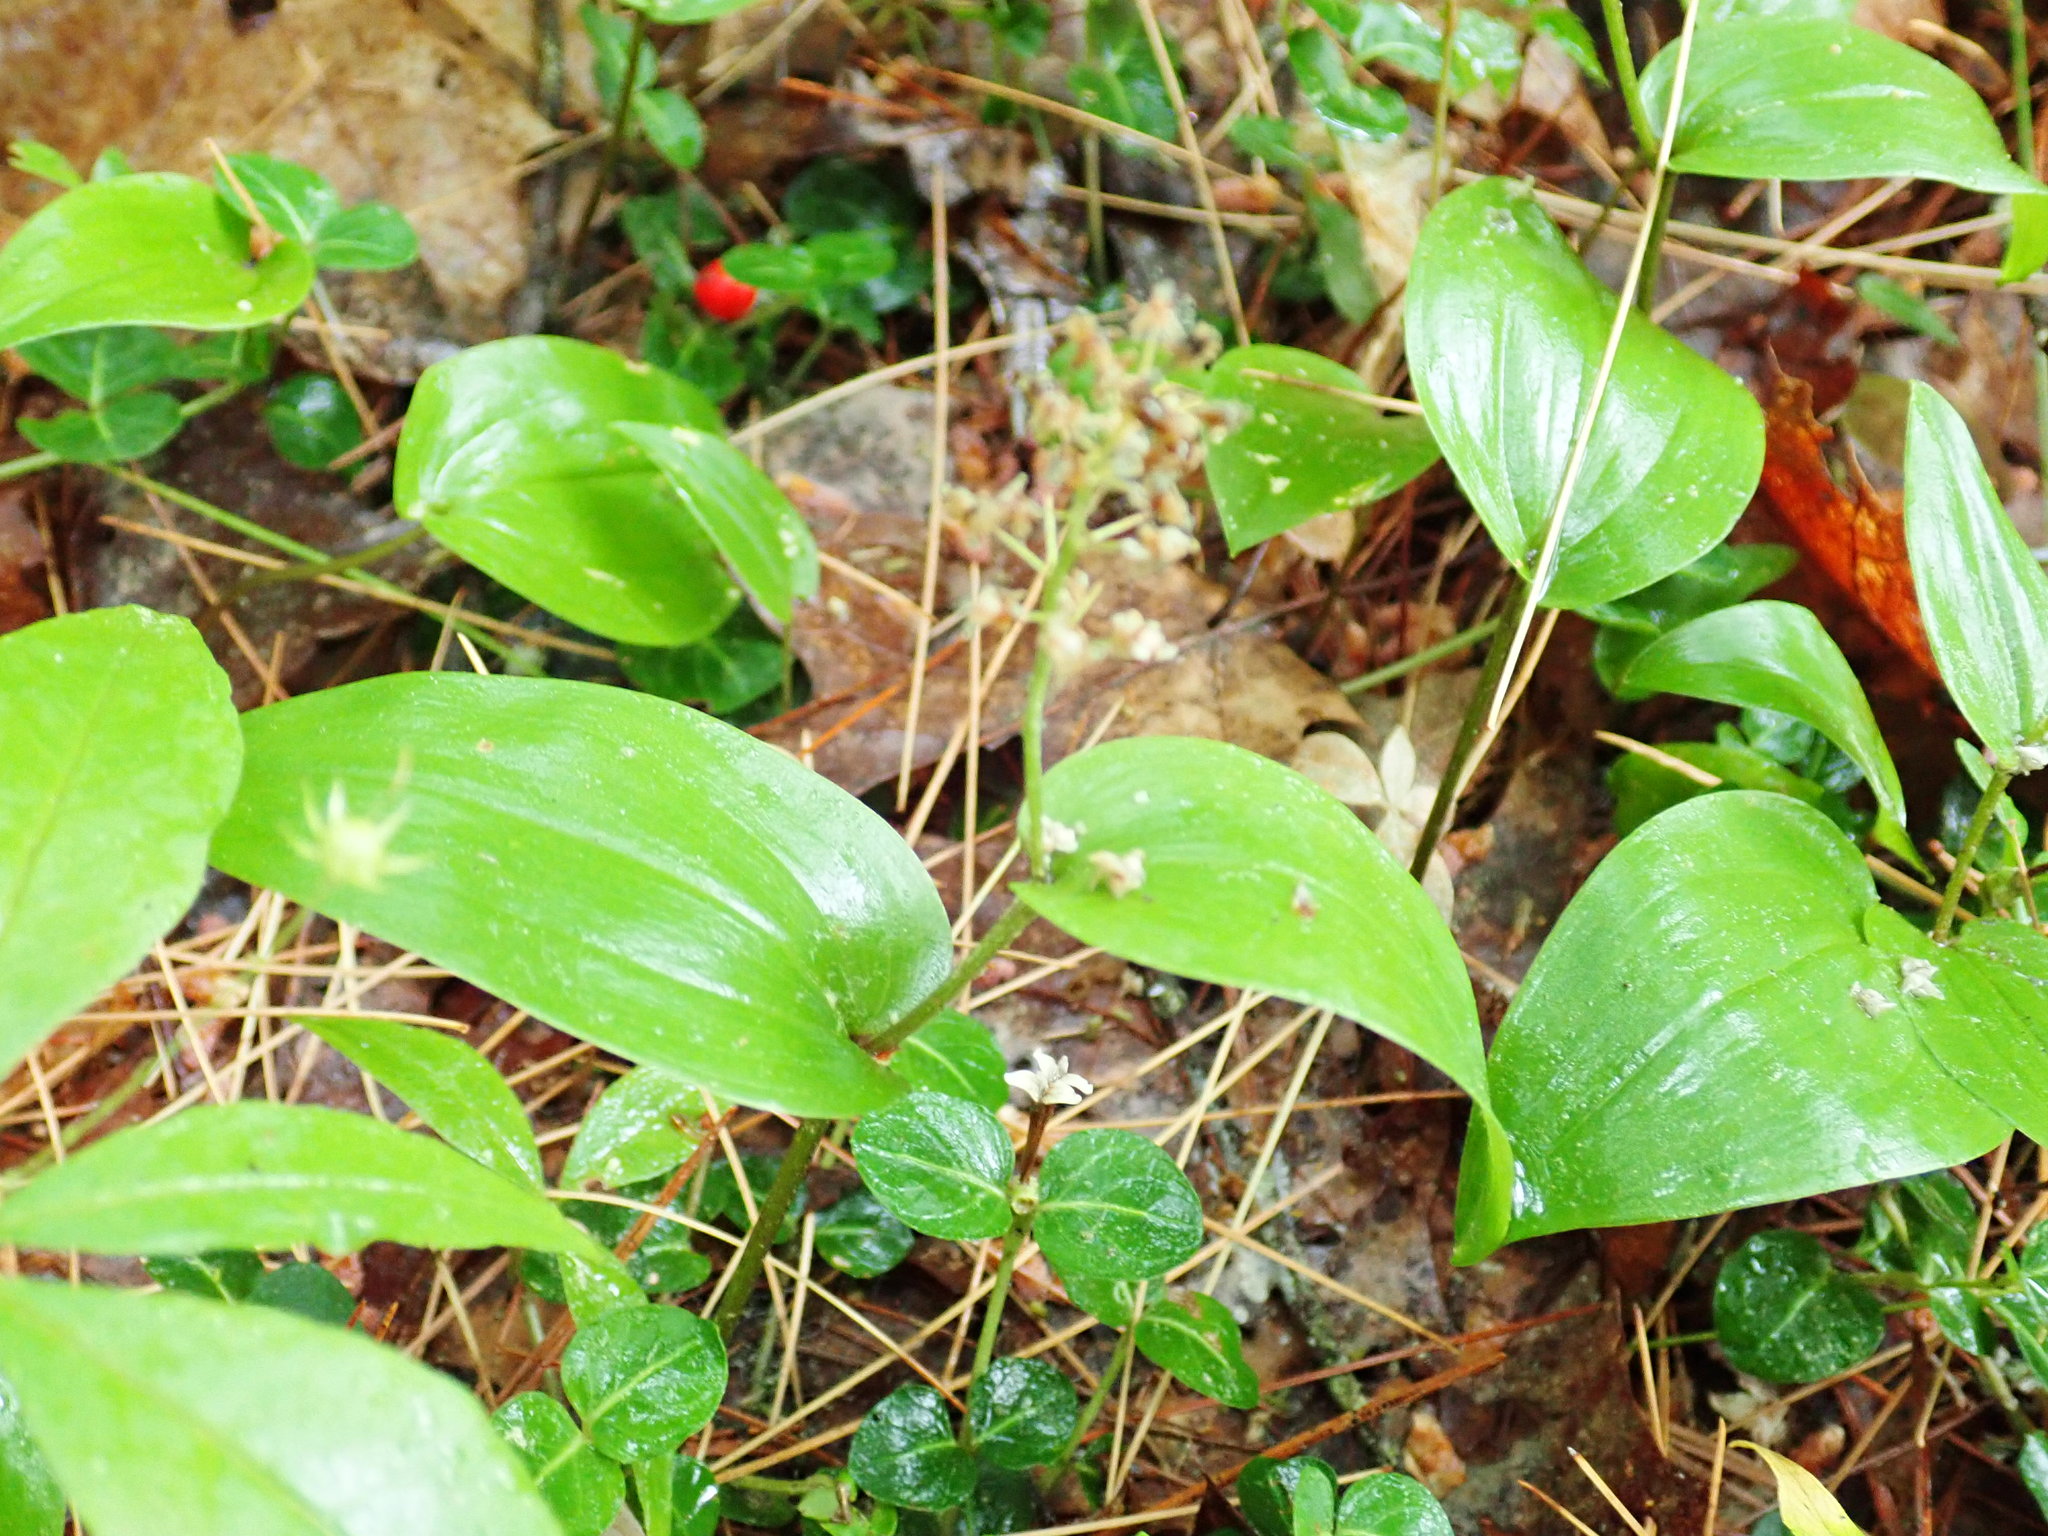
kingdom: Plantae
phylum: Tracheophyta
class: Liliopsida
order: Asparagales
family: Asparagaceae
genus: Maianthemum
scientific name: Maianthemum canadense
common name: False lily-of-the-valley
